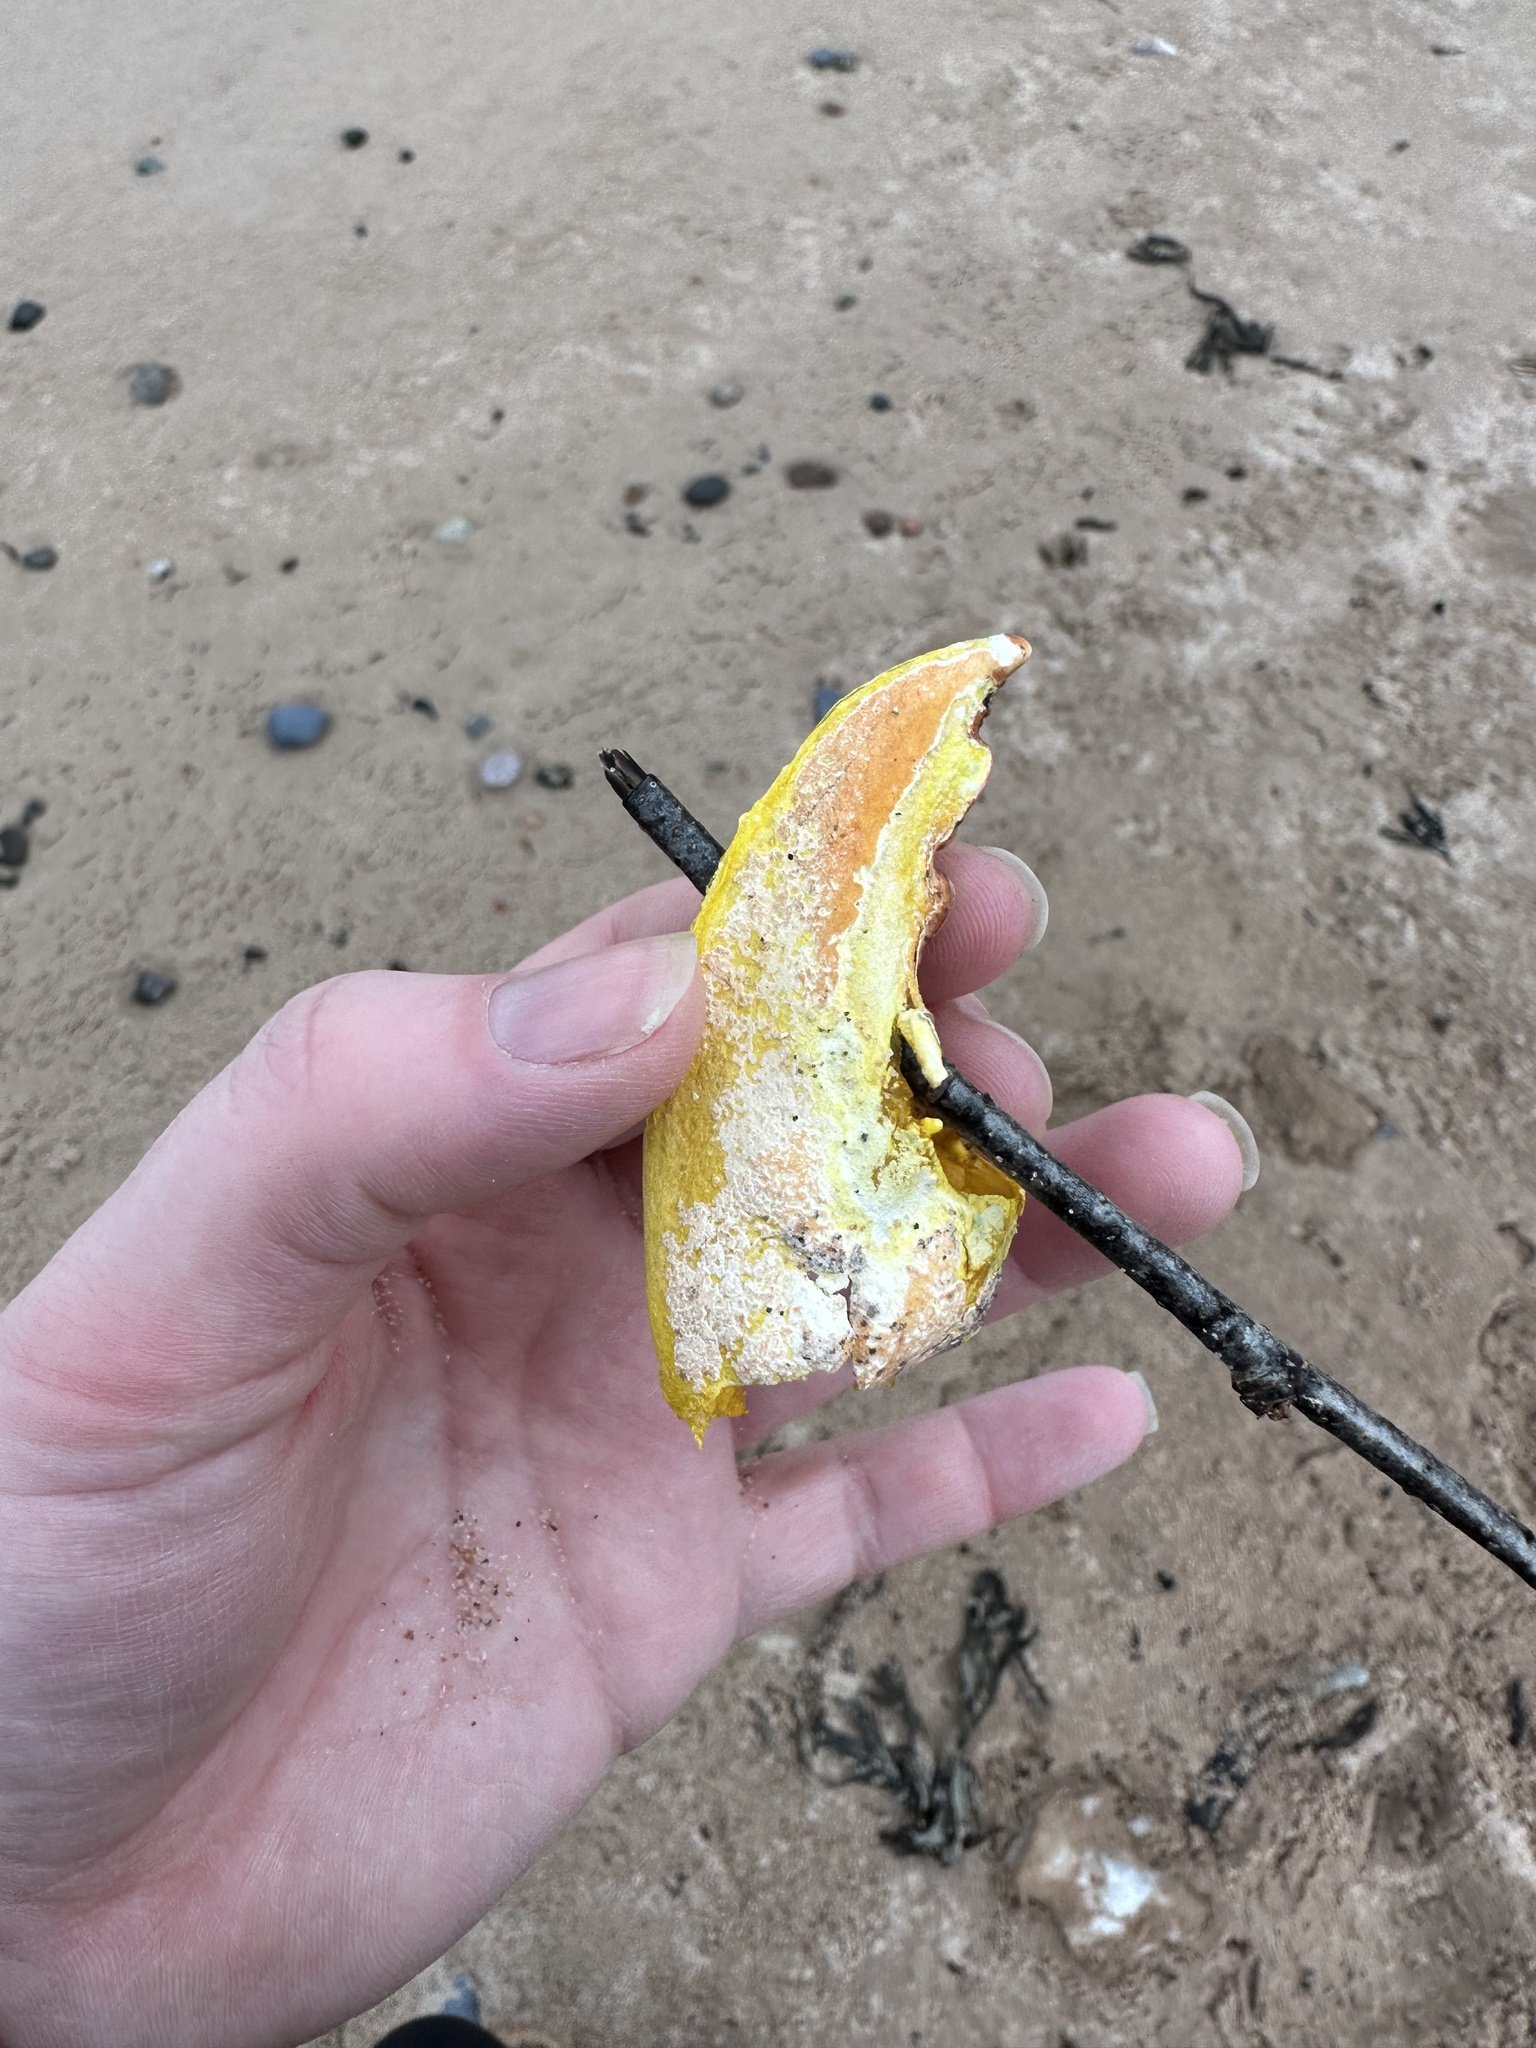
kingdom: Animalia
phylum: Arthropoda
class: Malacostraca
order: Decapoda
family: Nephropidae
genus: Homarus
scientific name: Homarus americanus
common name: American lobster
